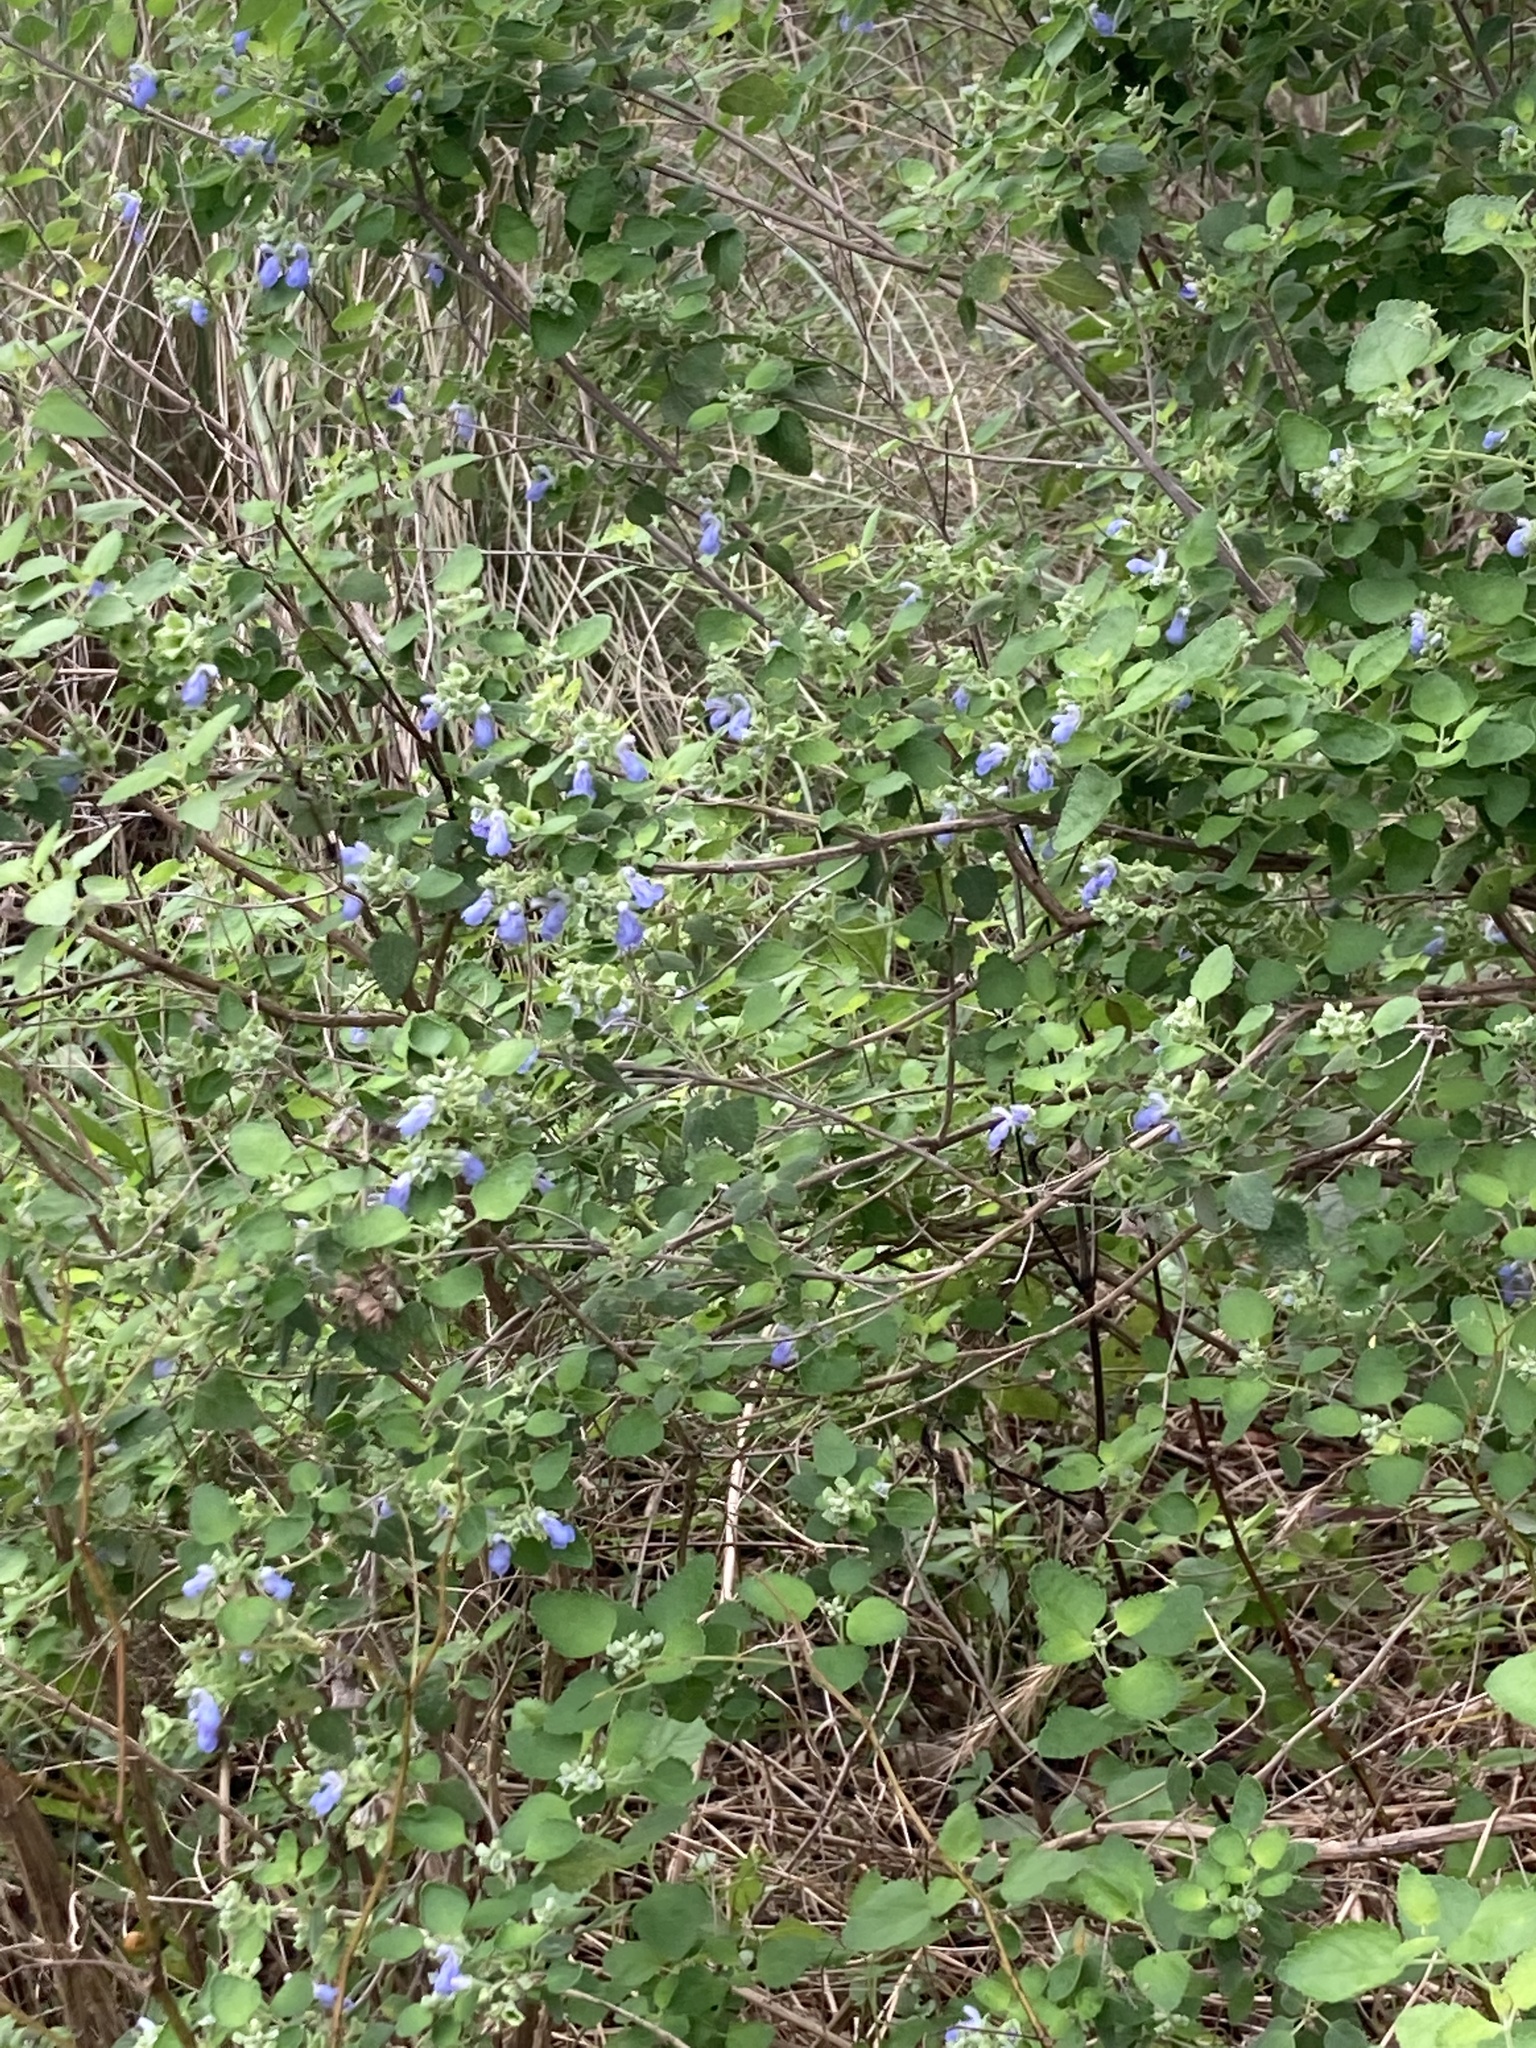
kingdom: Plantae
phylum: Tracheophyta
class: Magnoliopsida
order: Lamiales
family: Lamiaceae
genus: Salvia
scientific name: Salvia ballotiflora
